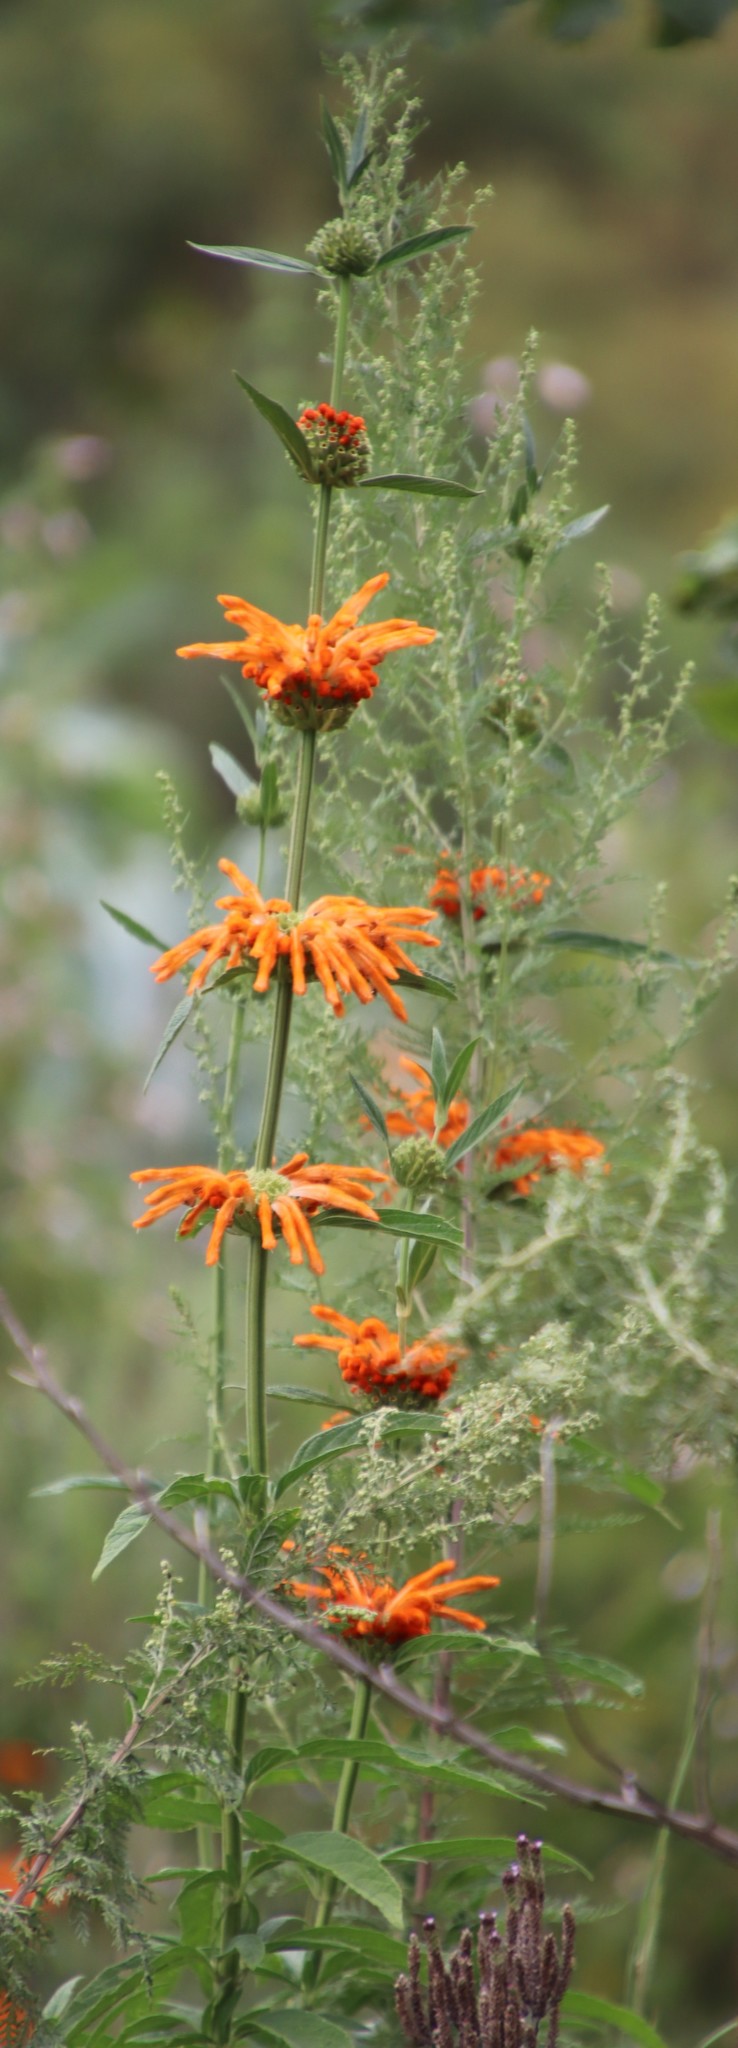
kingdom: Plantae
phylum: Tracheophyta
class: Magnoliopsida
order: Lamiales
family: Lamiaceae
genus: Leonotis
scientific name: Leonotis leonurus
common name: Lion's ear
